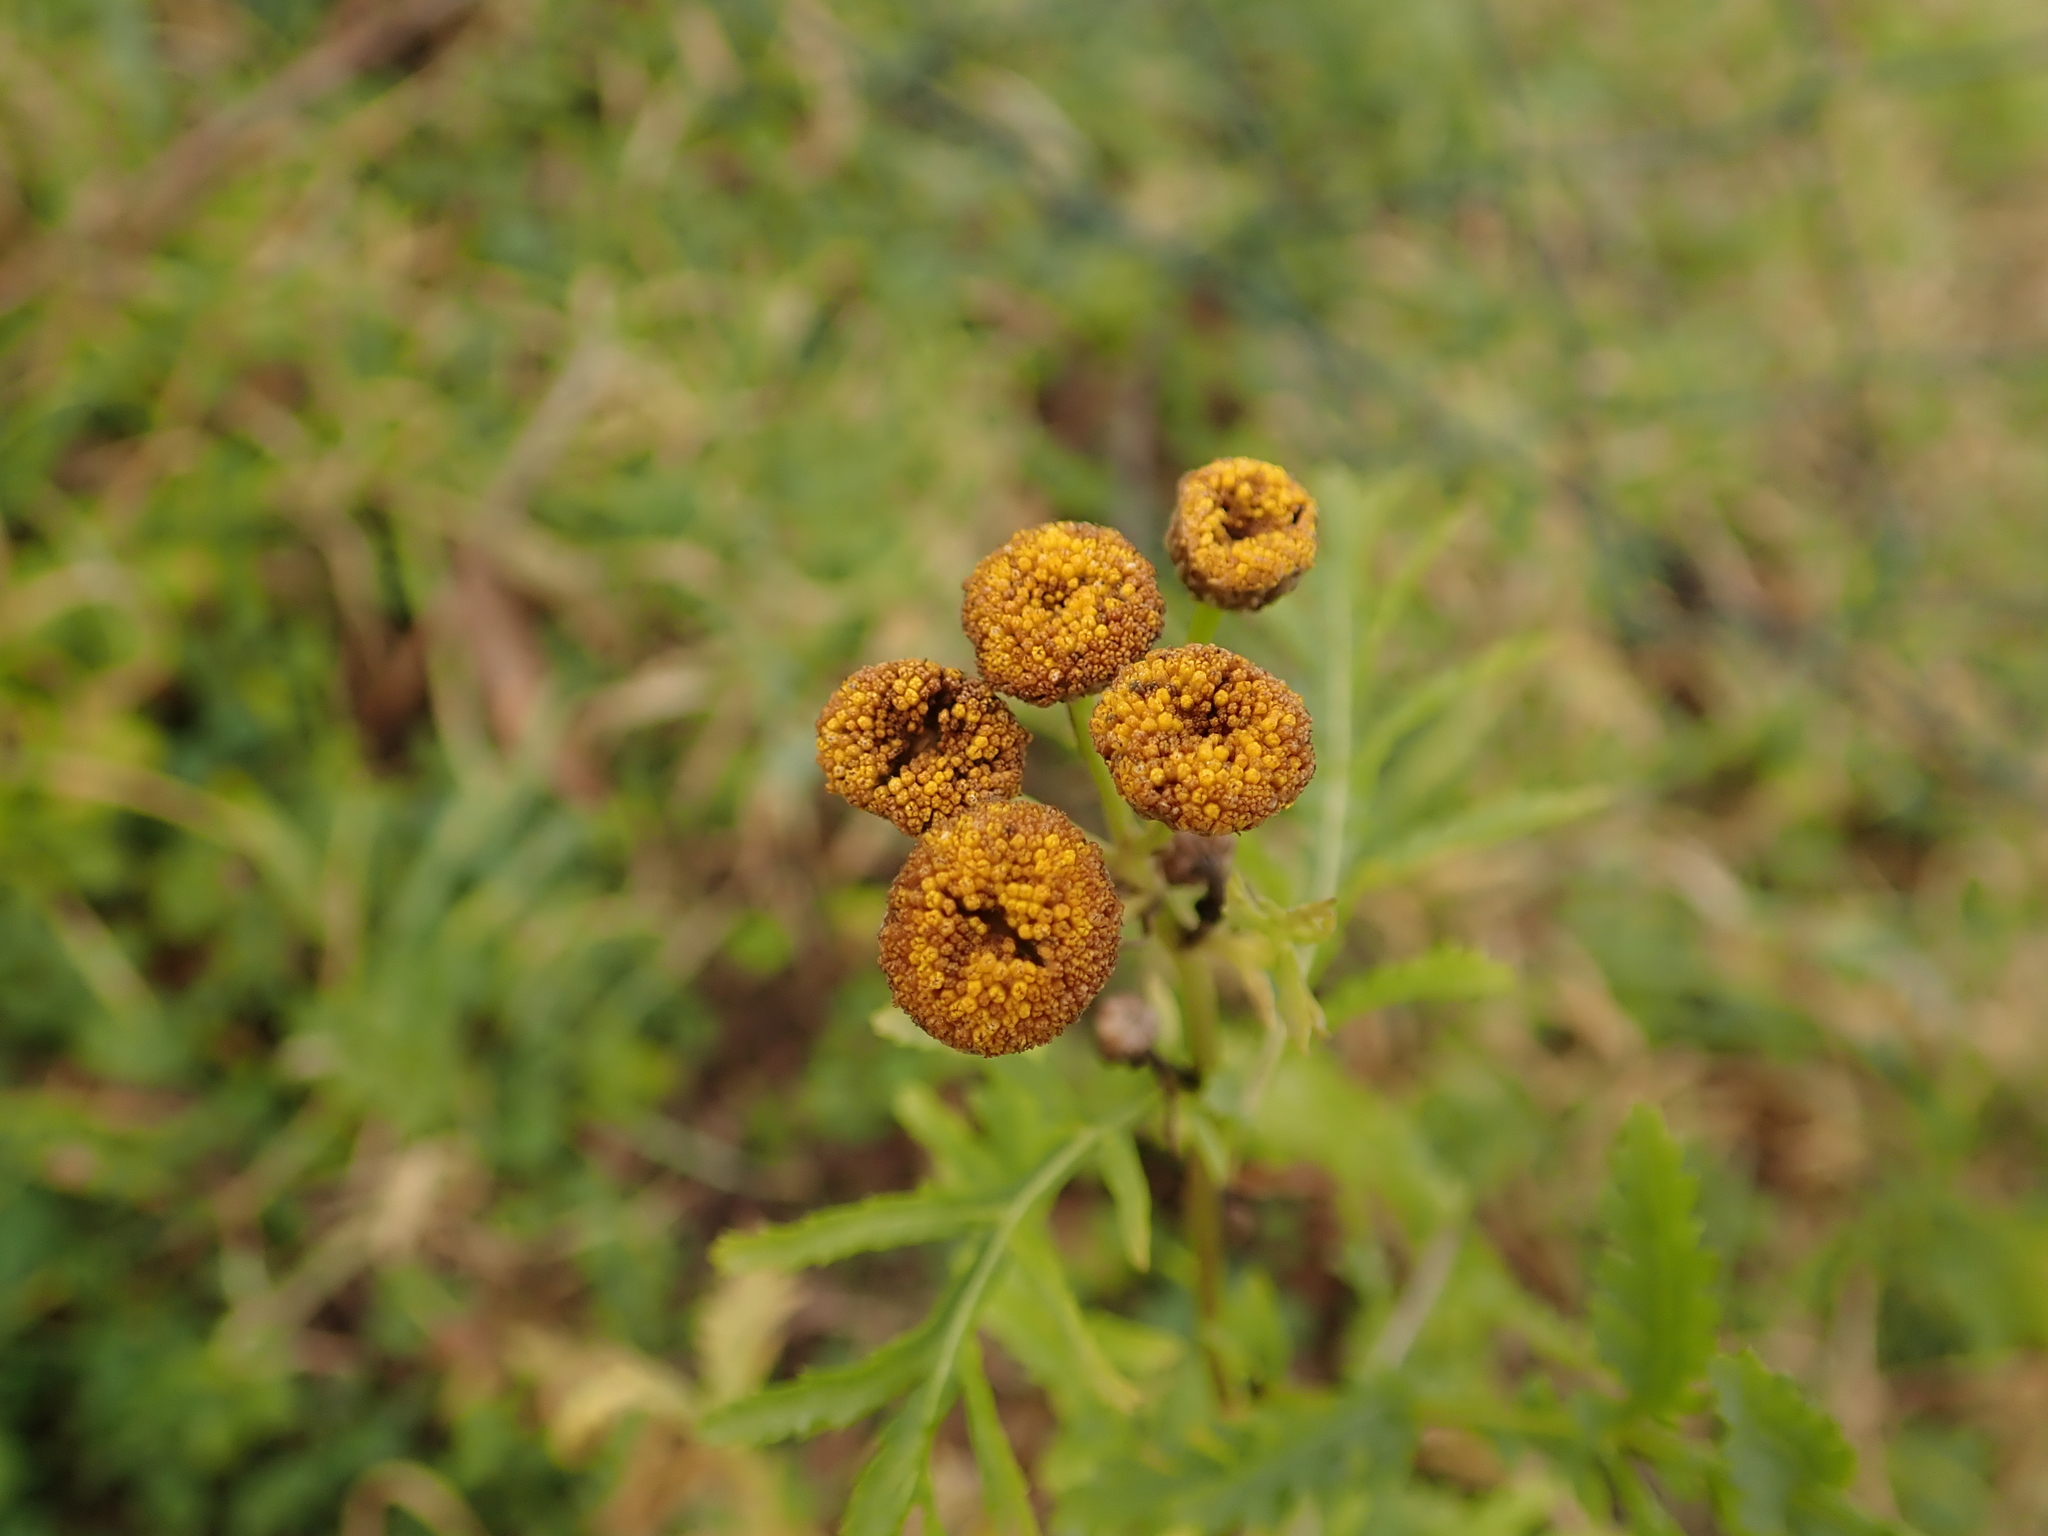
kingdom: Plantae
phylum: Tracheophyta
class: Magnoliopsida
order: Asterales
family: Asteraceae
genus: Tanacetum
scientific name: Tanacetum vulgare
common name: Common tansy
